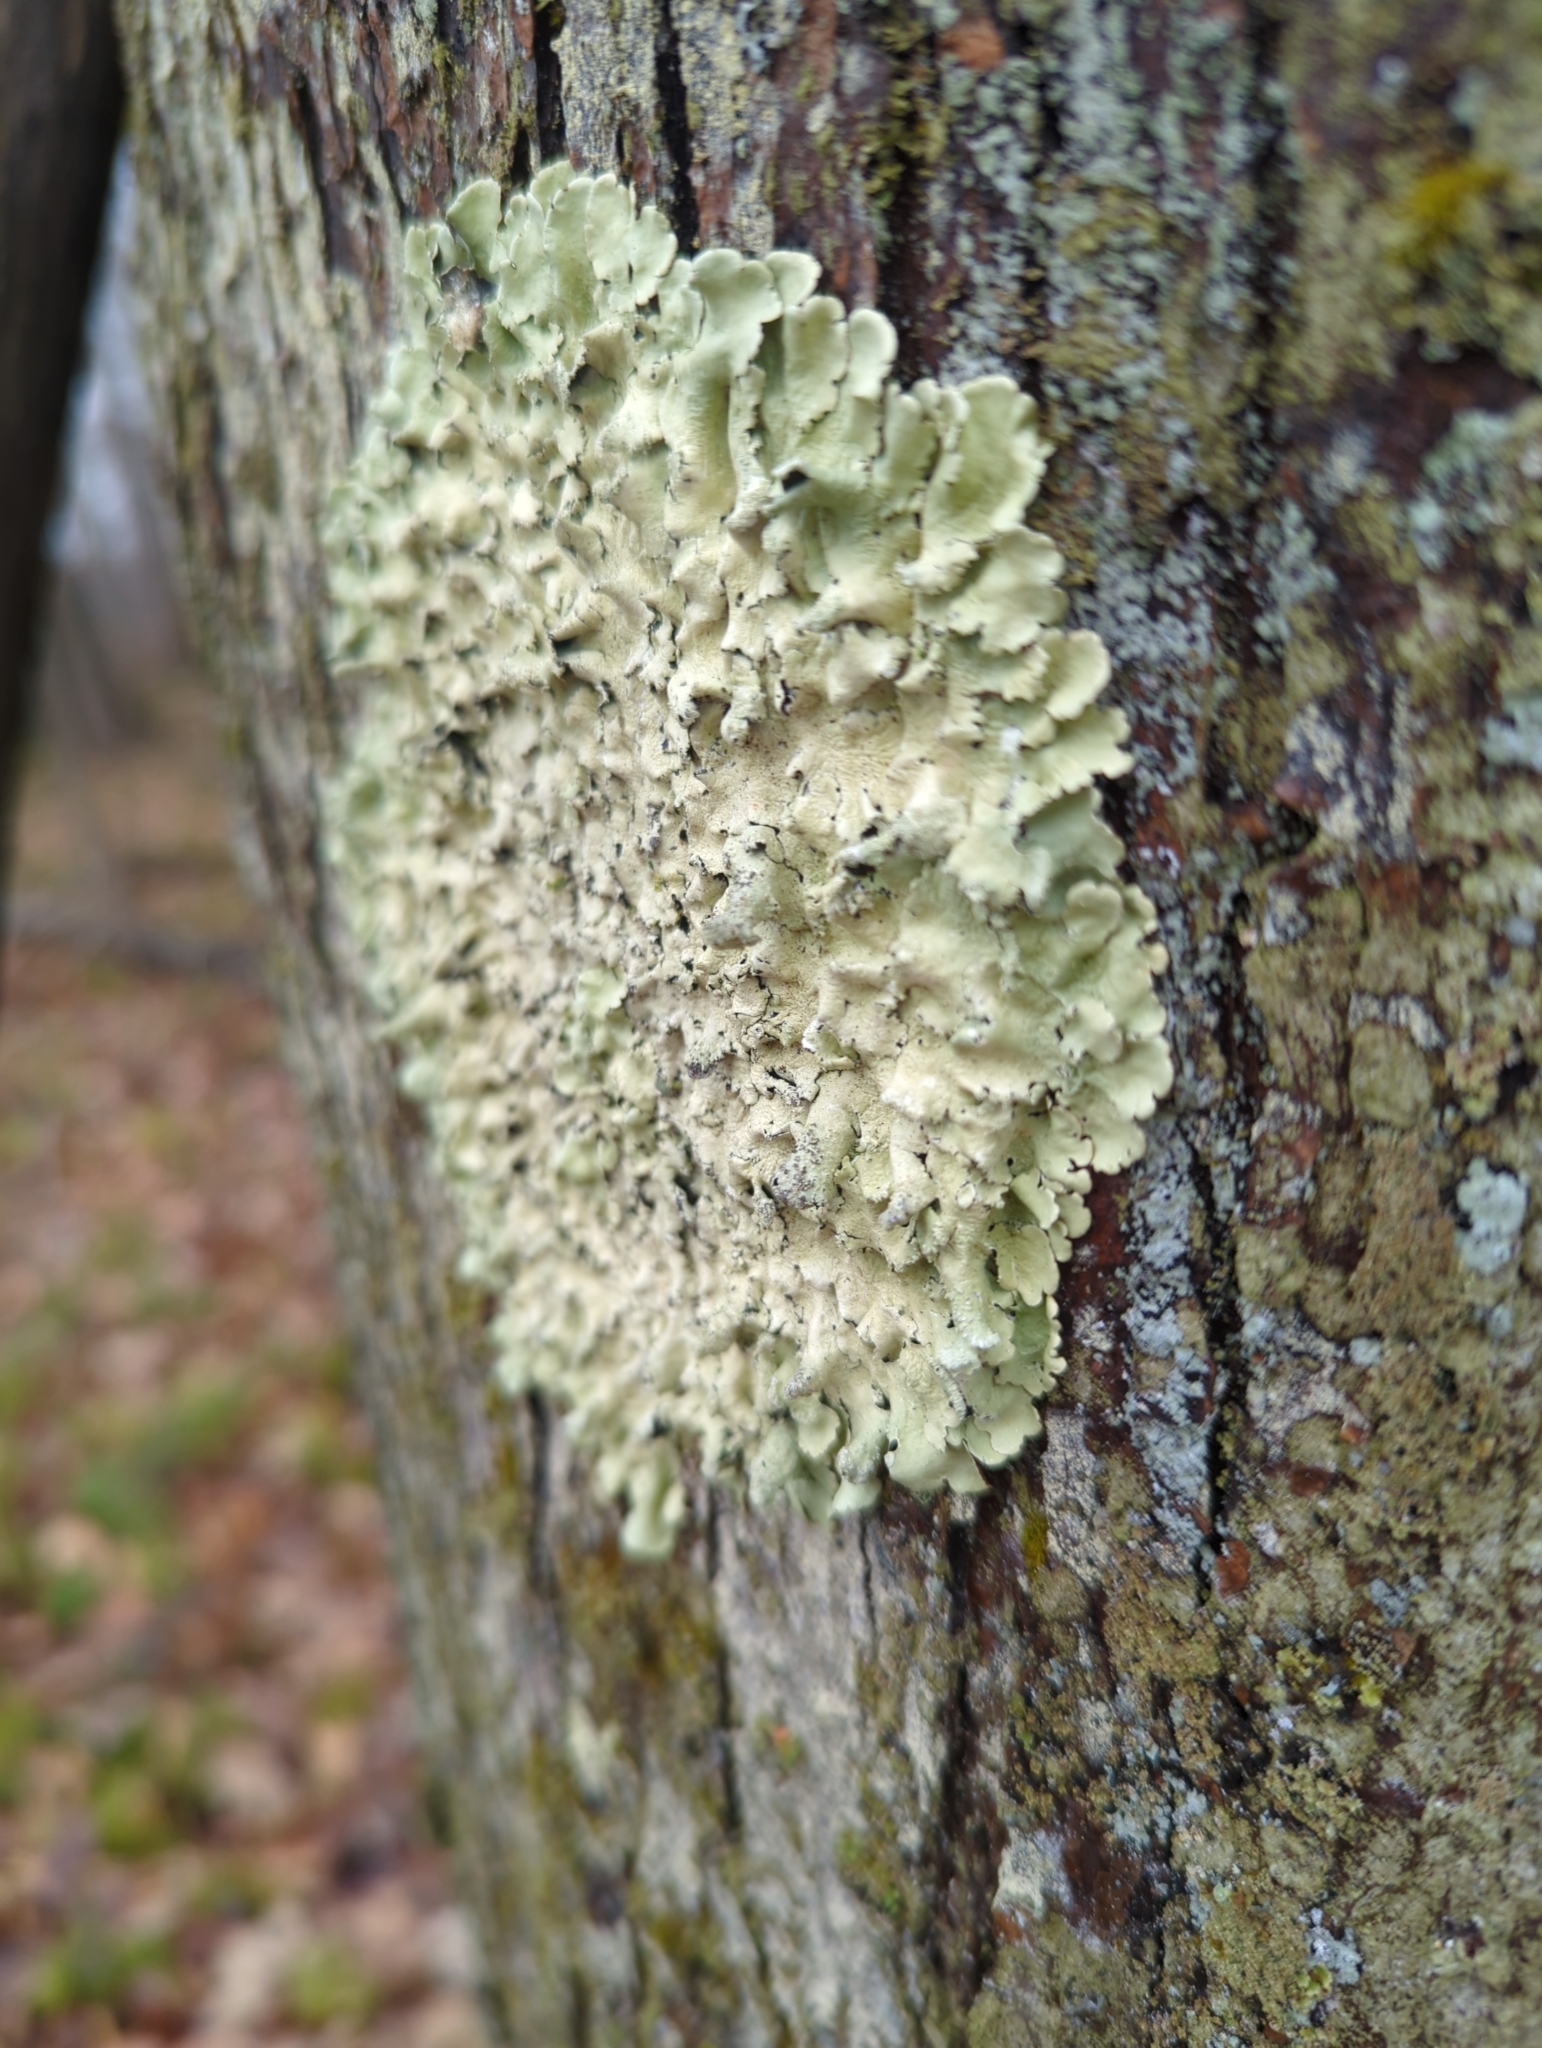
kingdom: Fungi
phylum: Ascomycota
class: Lecanoromycetes
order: Lecanorales
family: Parmeliaceae
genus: Flavoparmelia
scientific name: Flavoparmelia caperata
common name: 40-mile per hour lichen
